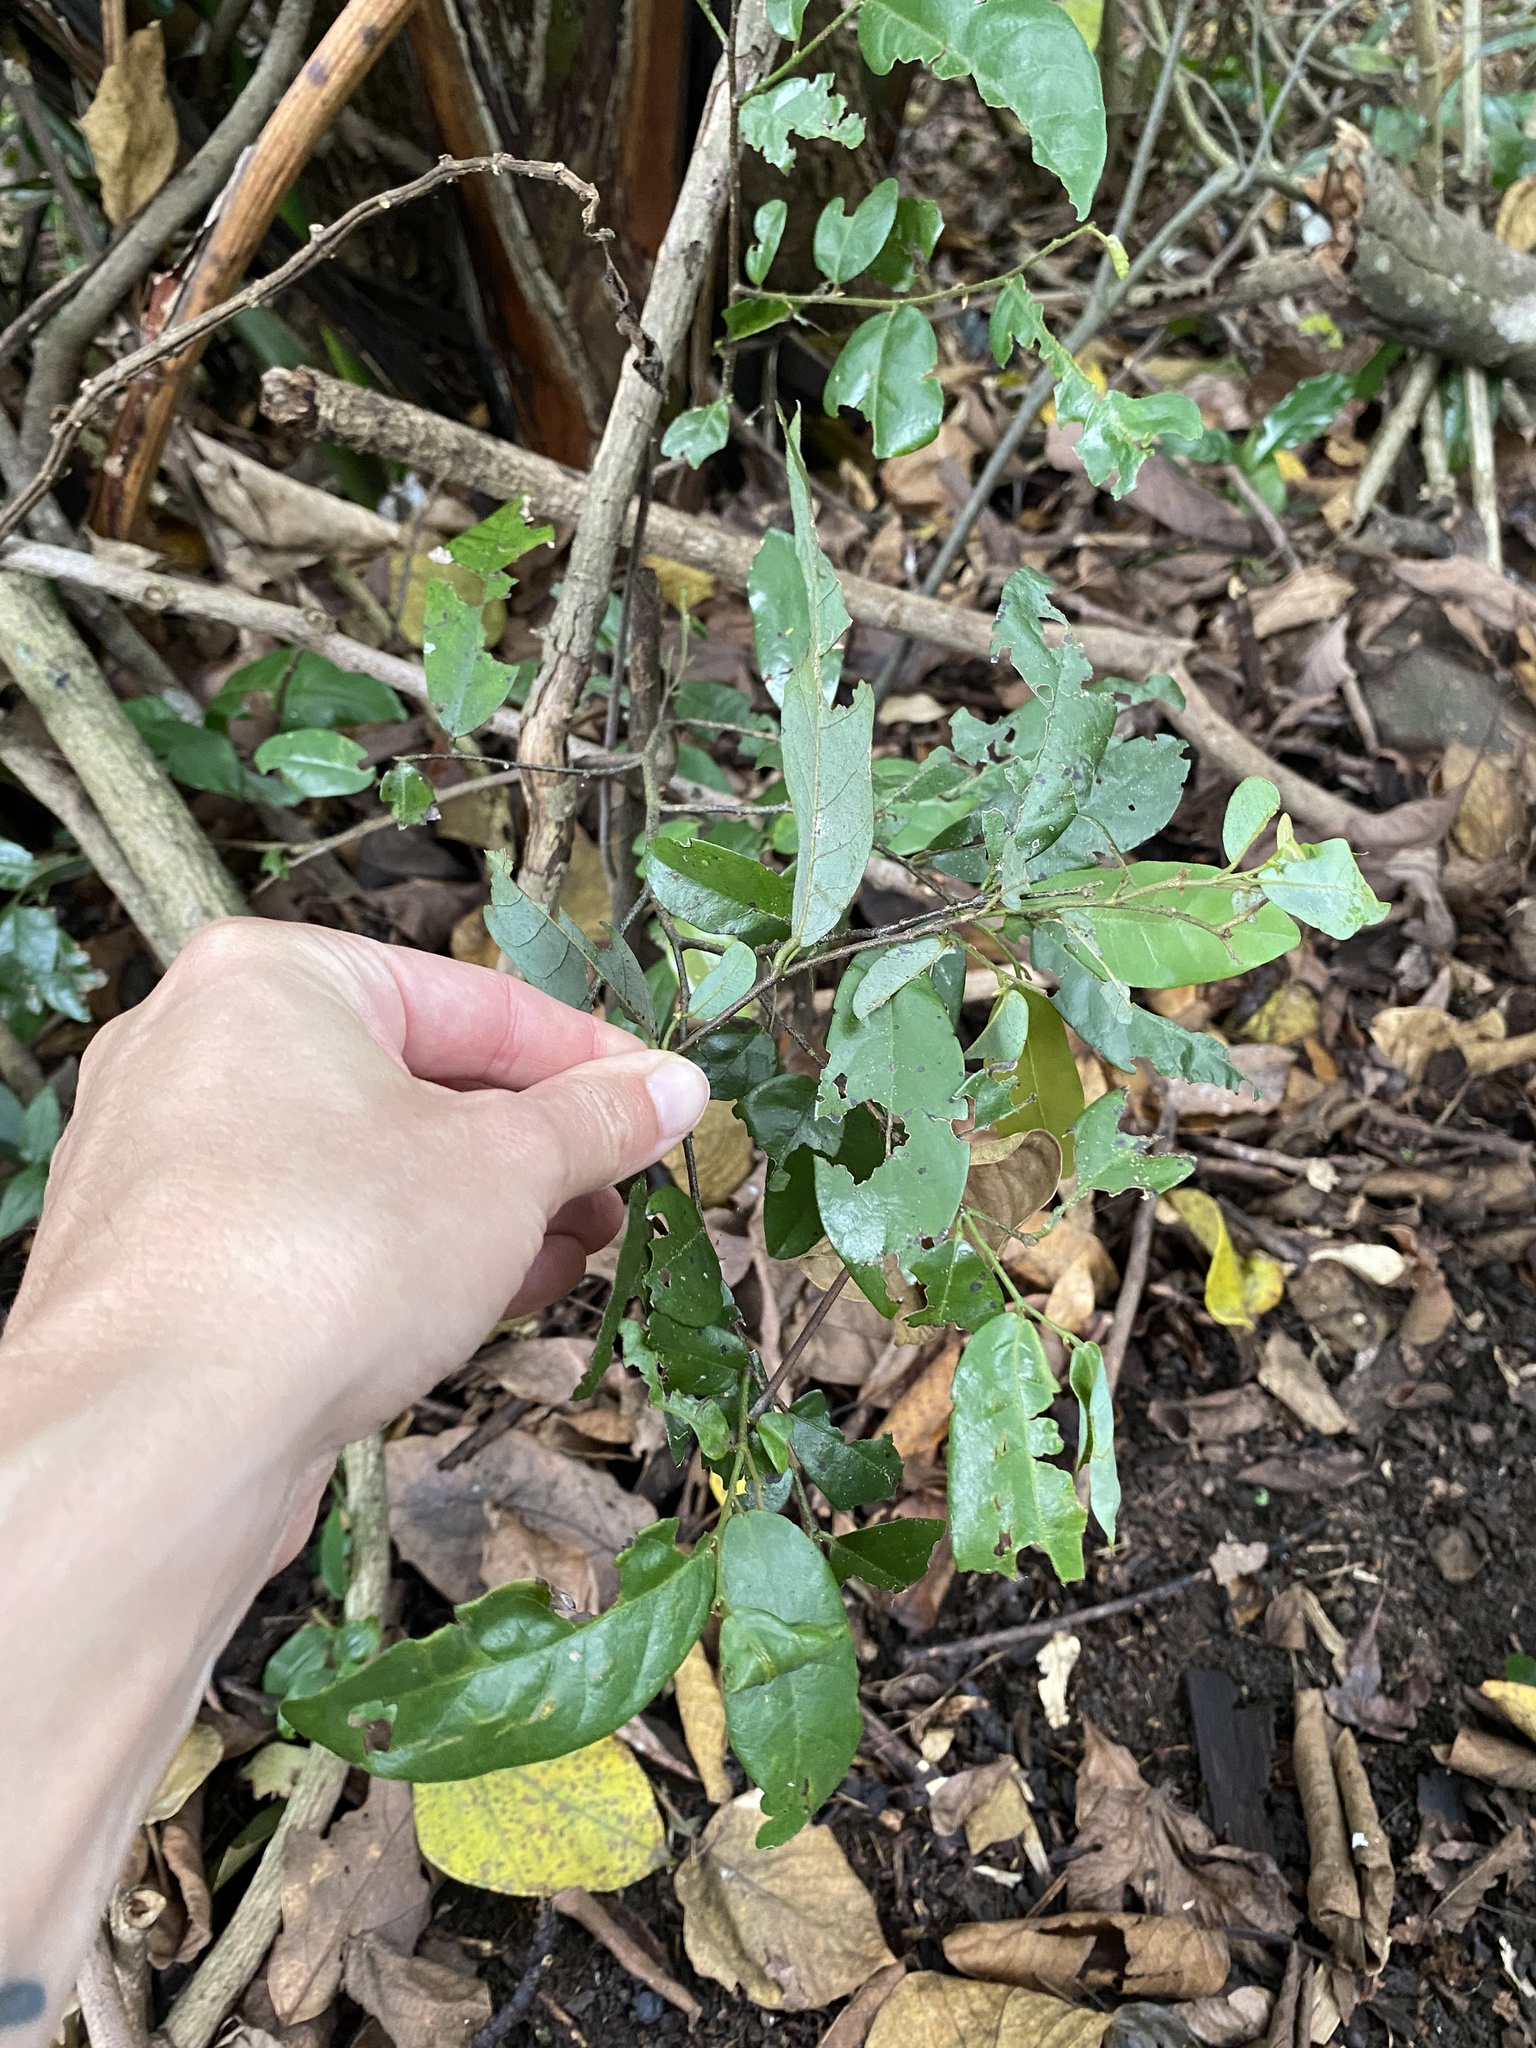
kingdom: Plantae
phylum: Tracheophyta
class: Magnoliopsida
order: Magnoliales
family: Annonaceae
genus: Monanthotaxis
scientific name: Monanthotaxis caffra
